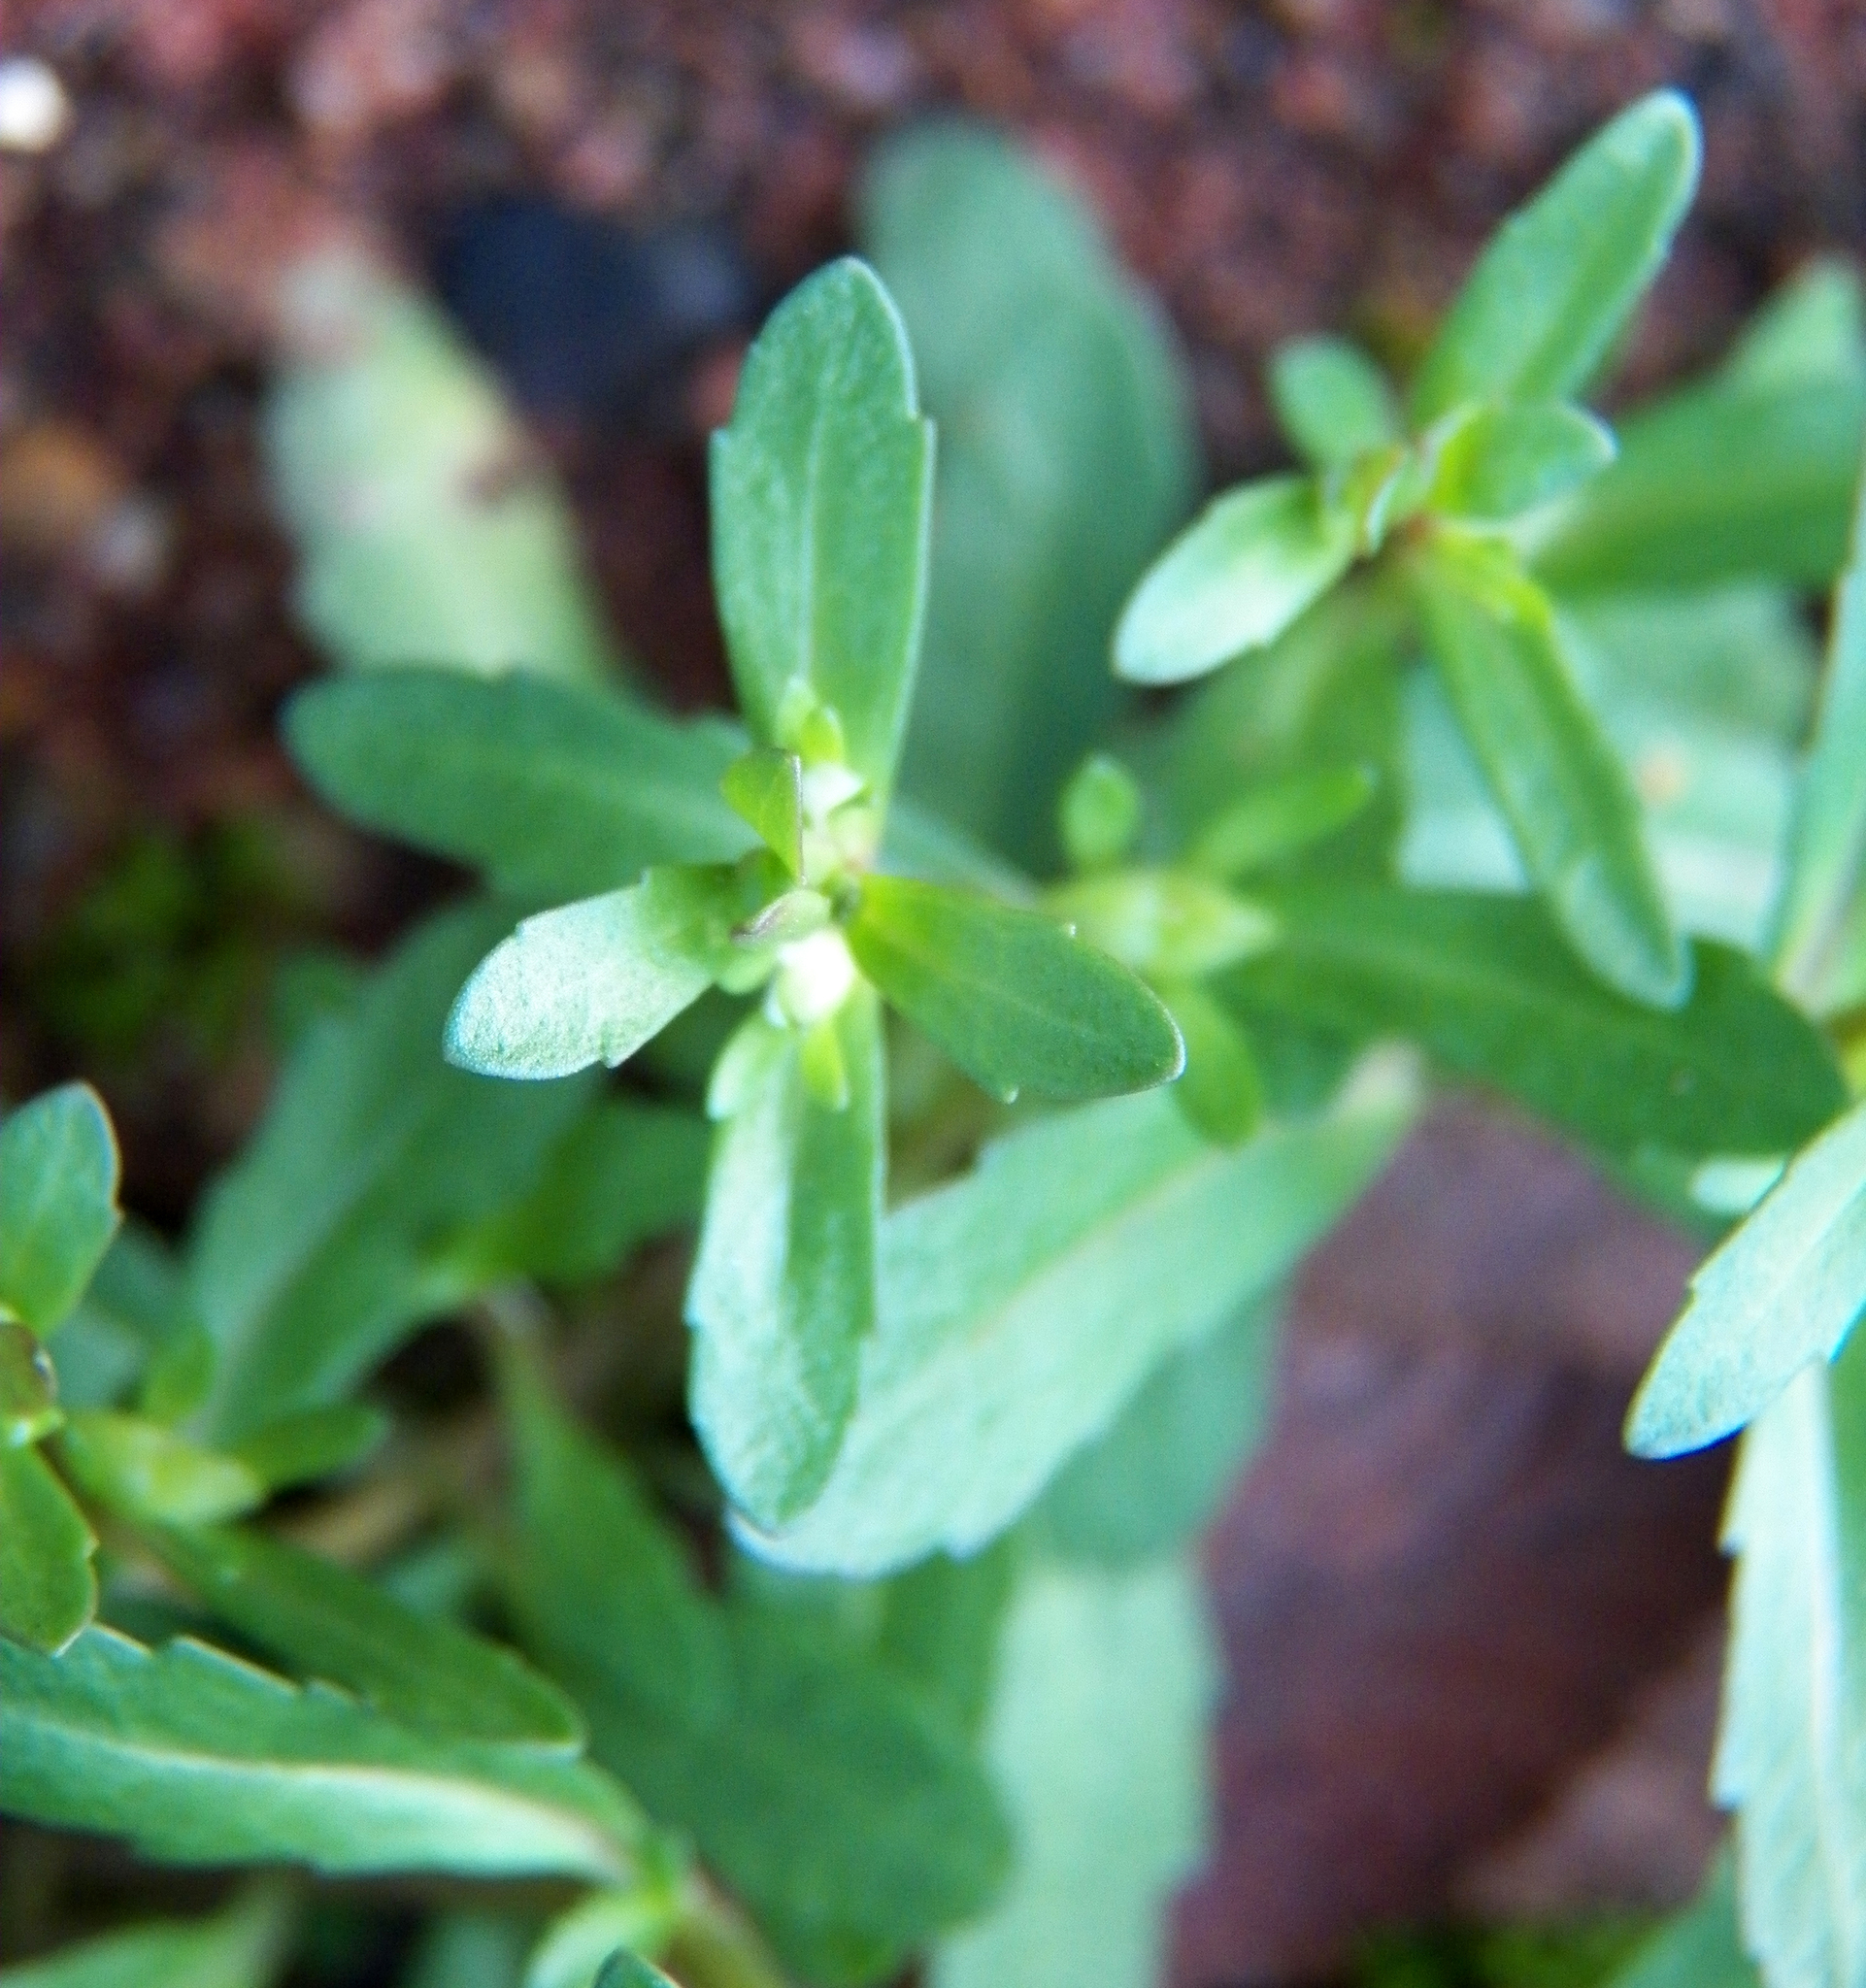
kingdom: Plantae
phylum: Tracheophyta
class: Magnoliopsida
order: Lamiales
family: Plantaginaceae
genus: Veronica
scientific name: Veronica peregrina
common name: Neckweed
